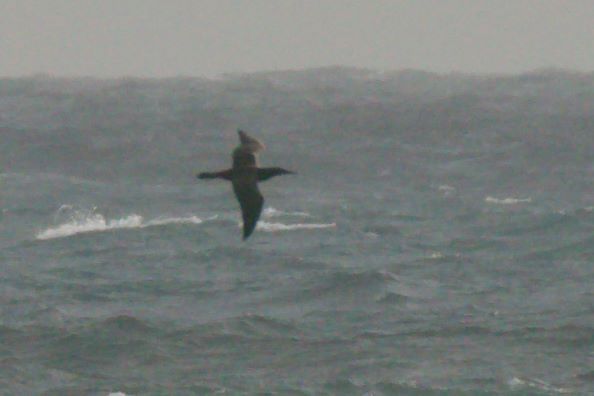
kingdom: Animalia
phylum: Chordata
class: Aves
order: Suliformes
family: Sulidae
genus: Morus
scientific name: Morus bassanus
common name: Northern gannet
